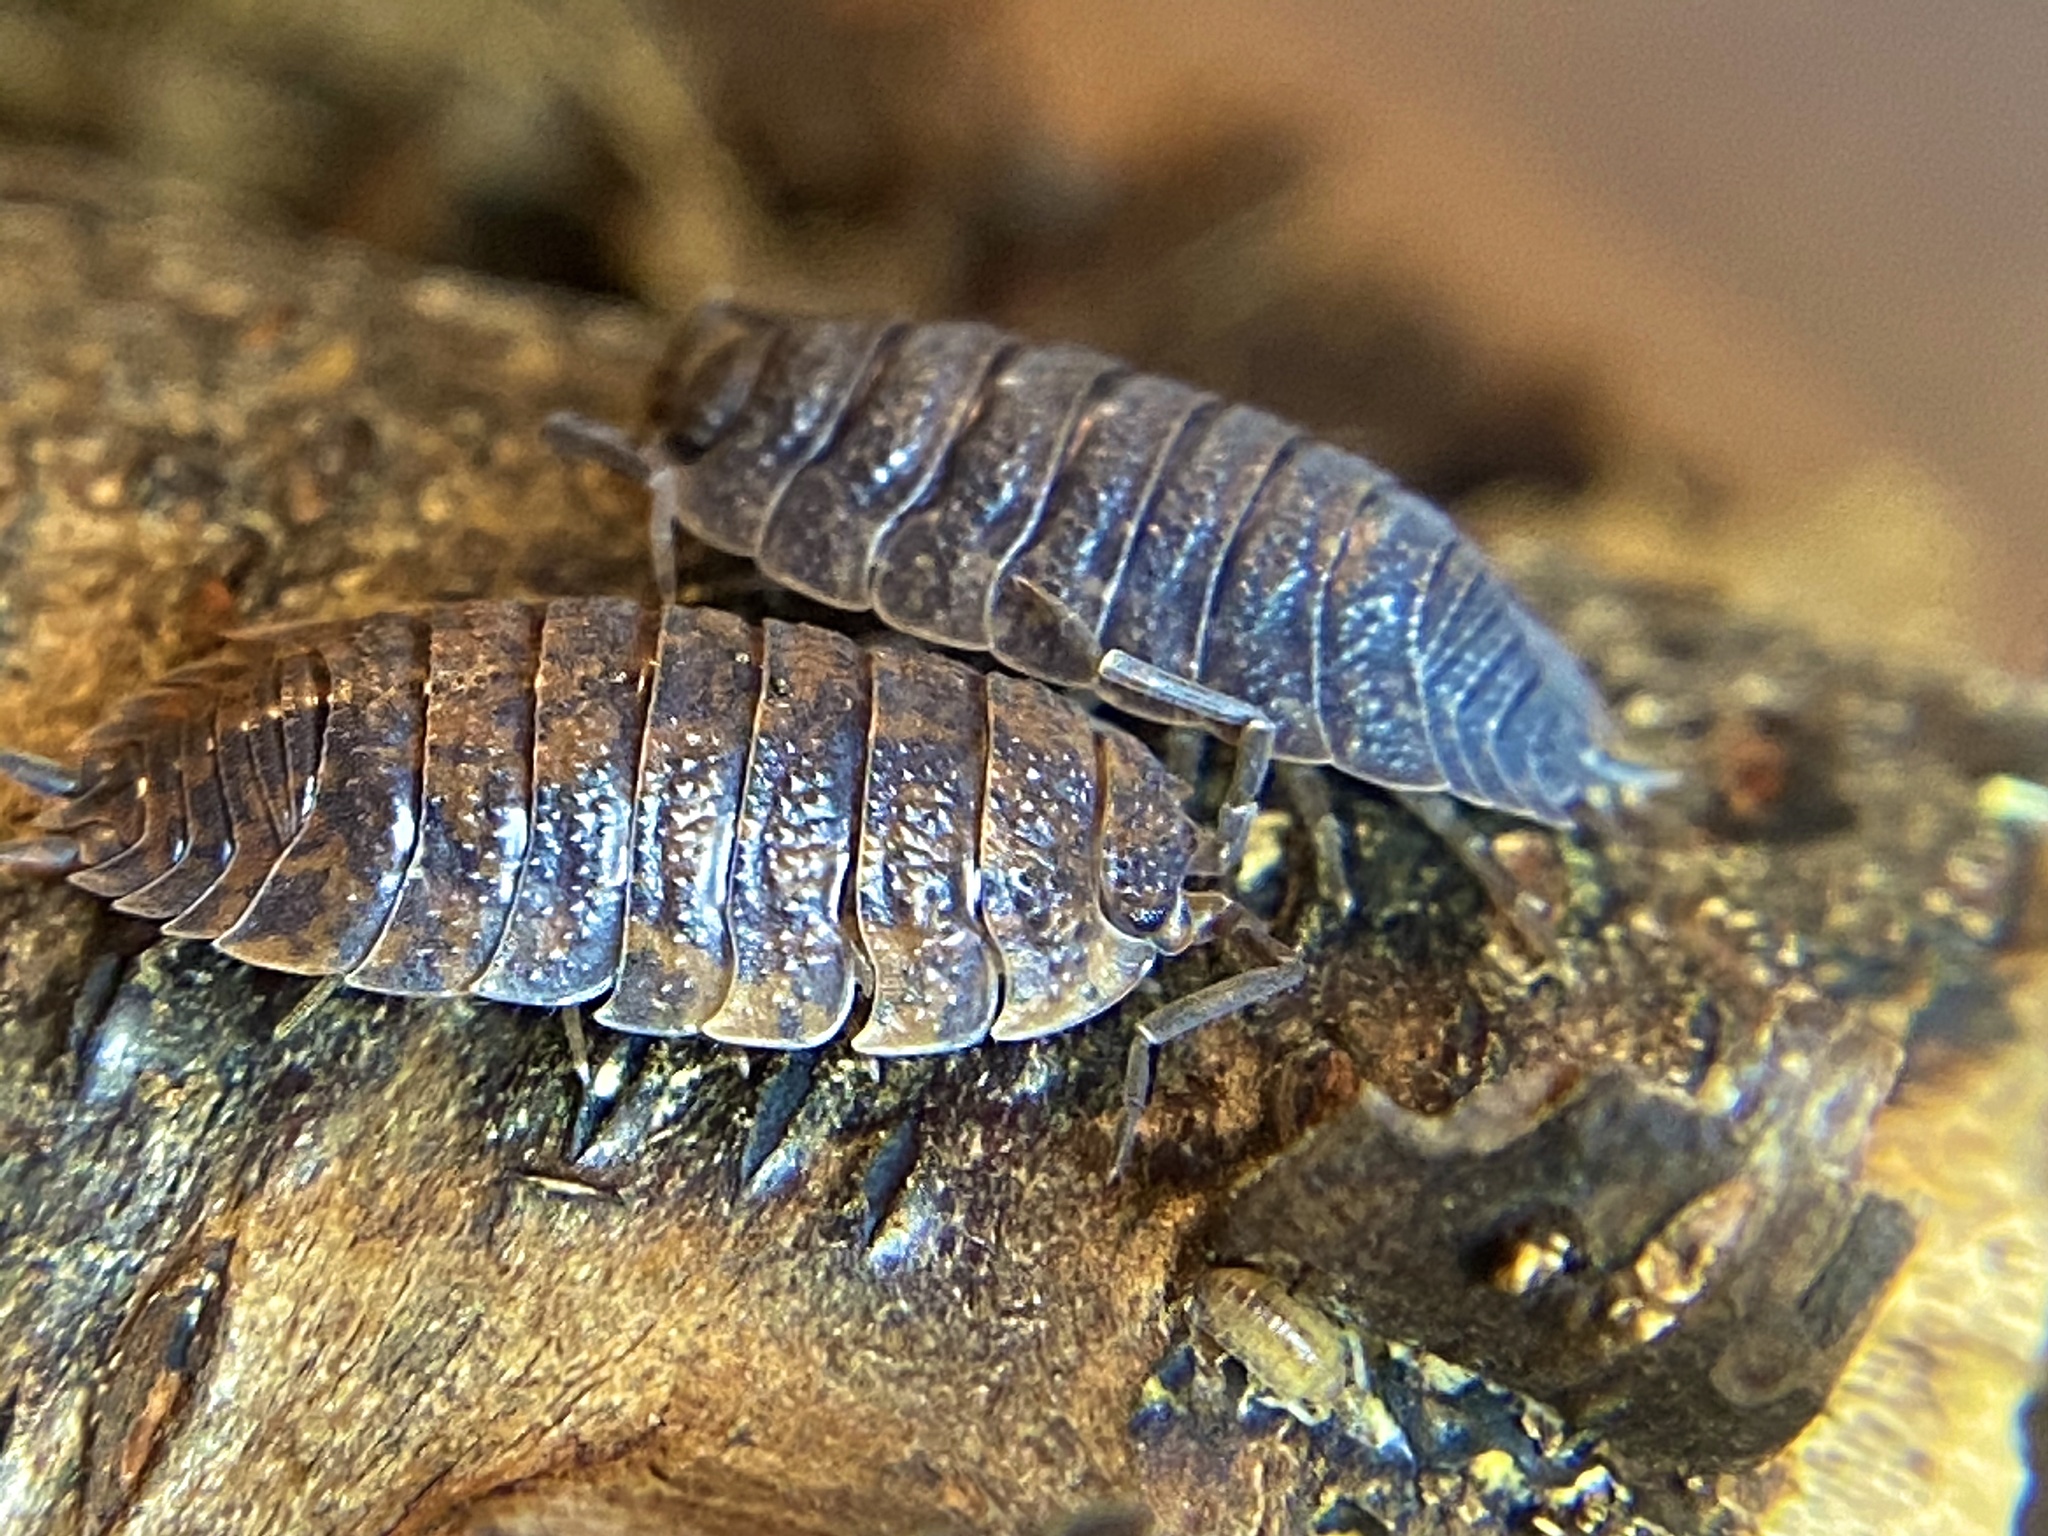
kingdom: Animalia
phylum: Arthropoda
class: Malacostraca
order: Isopoda
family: Porcellionidae
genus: Porcellio
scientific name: Porcellio scaber
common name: Common rough woodlouse
